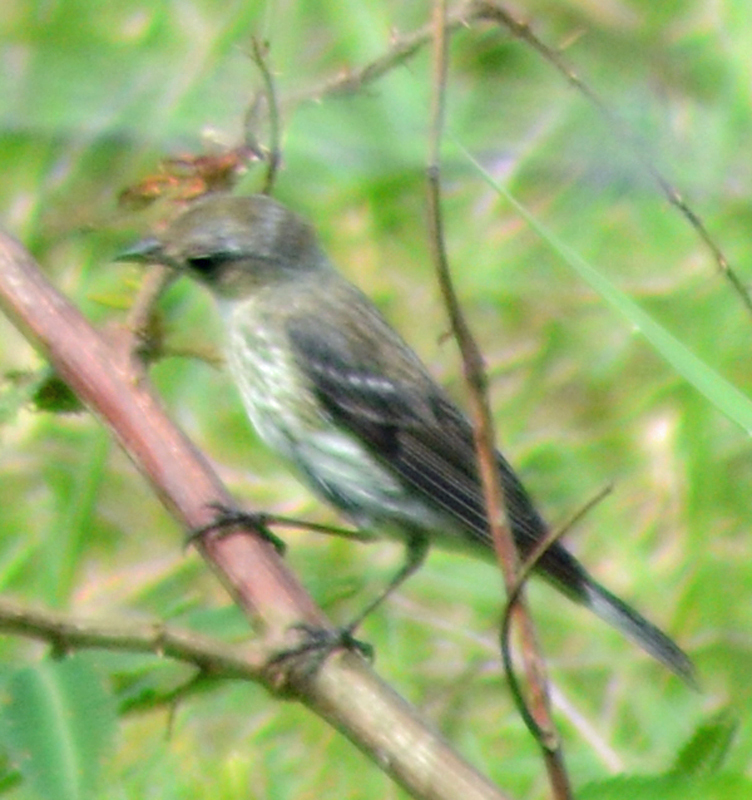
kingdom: Animalia
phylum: Chordata
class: Aves
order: Passeriformes
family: Parulidae
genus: Setophaga
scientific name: Setophaga coronata
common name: Myrtle warbler
